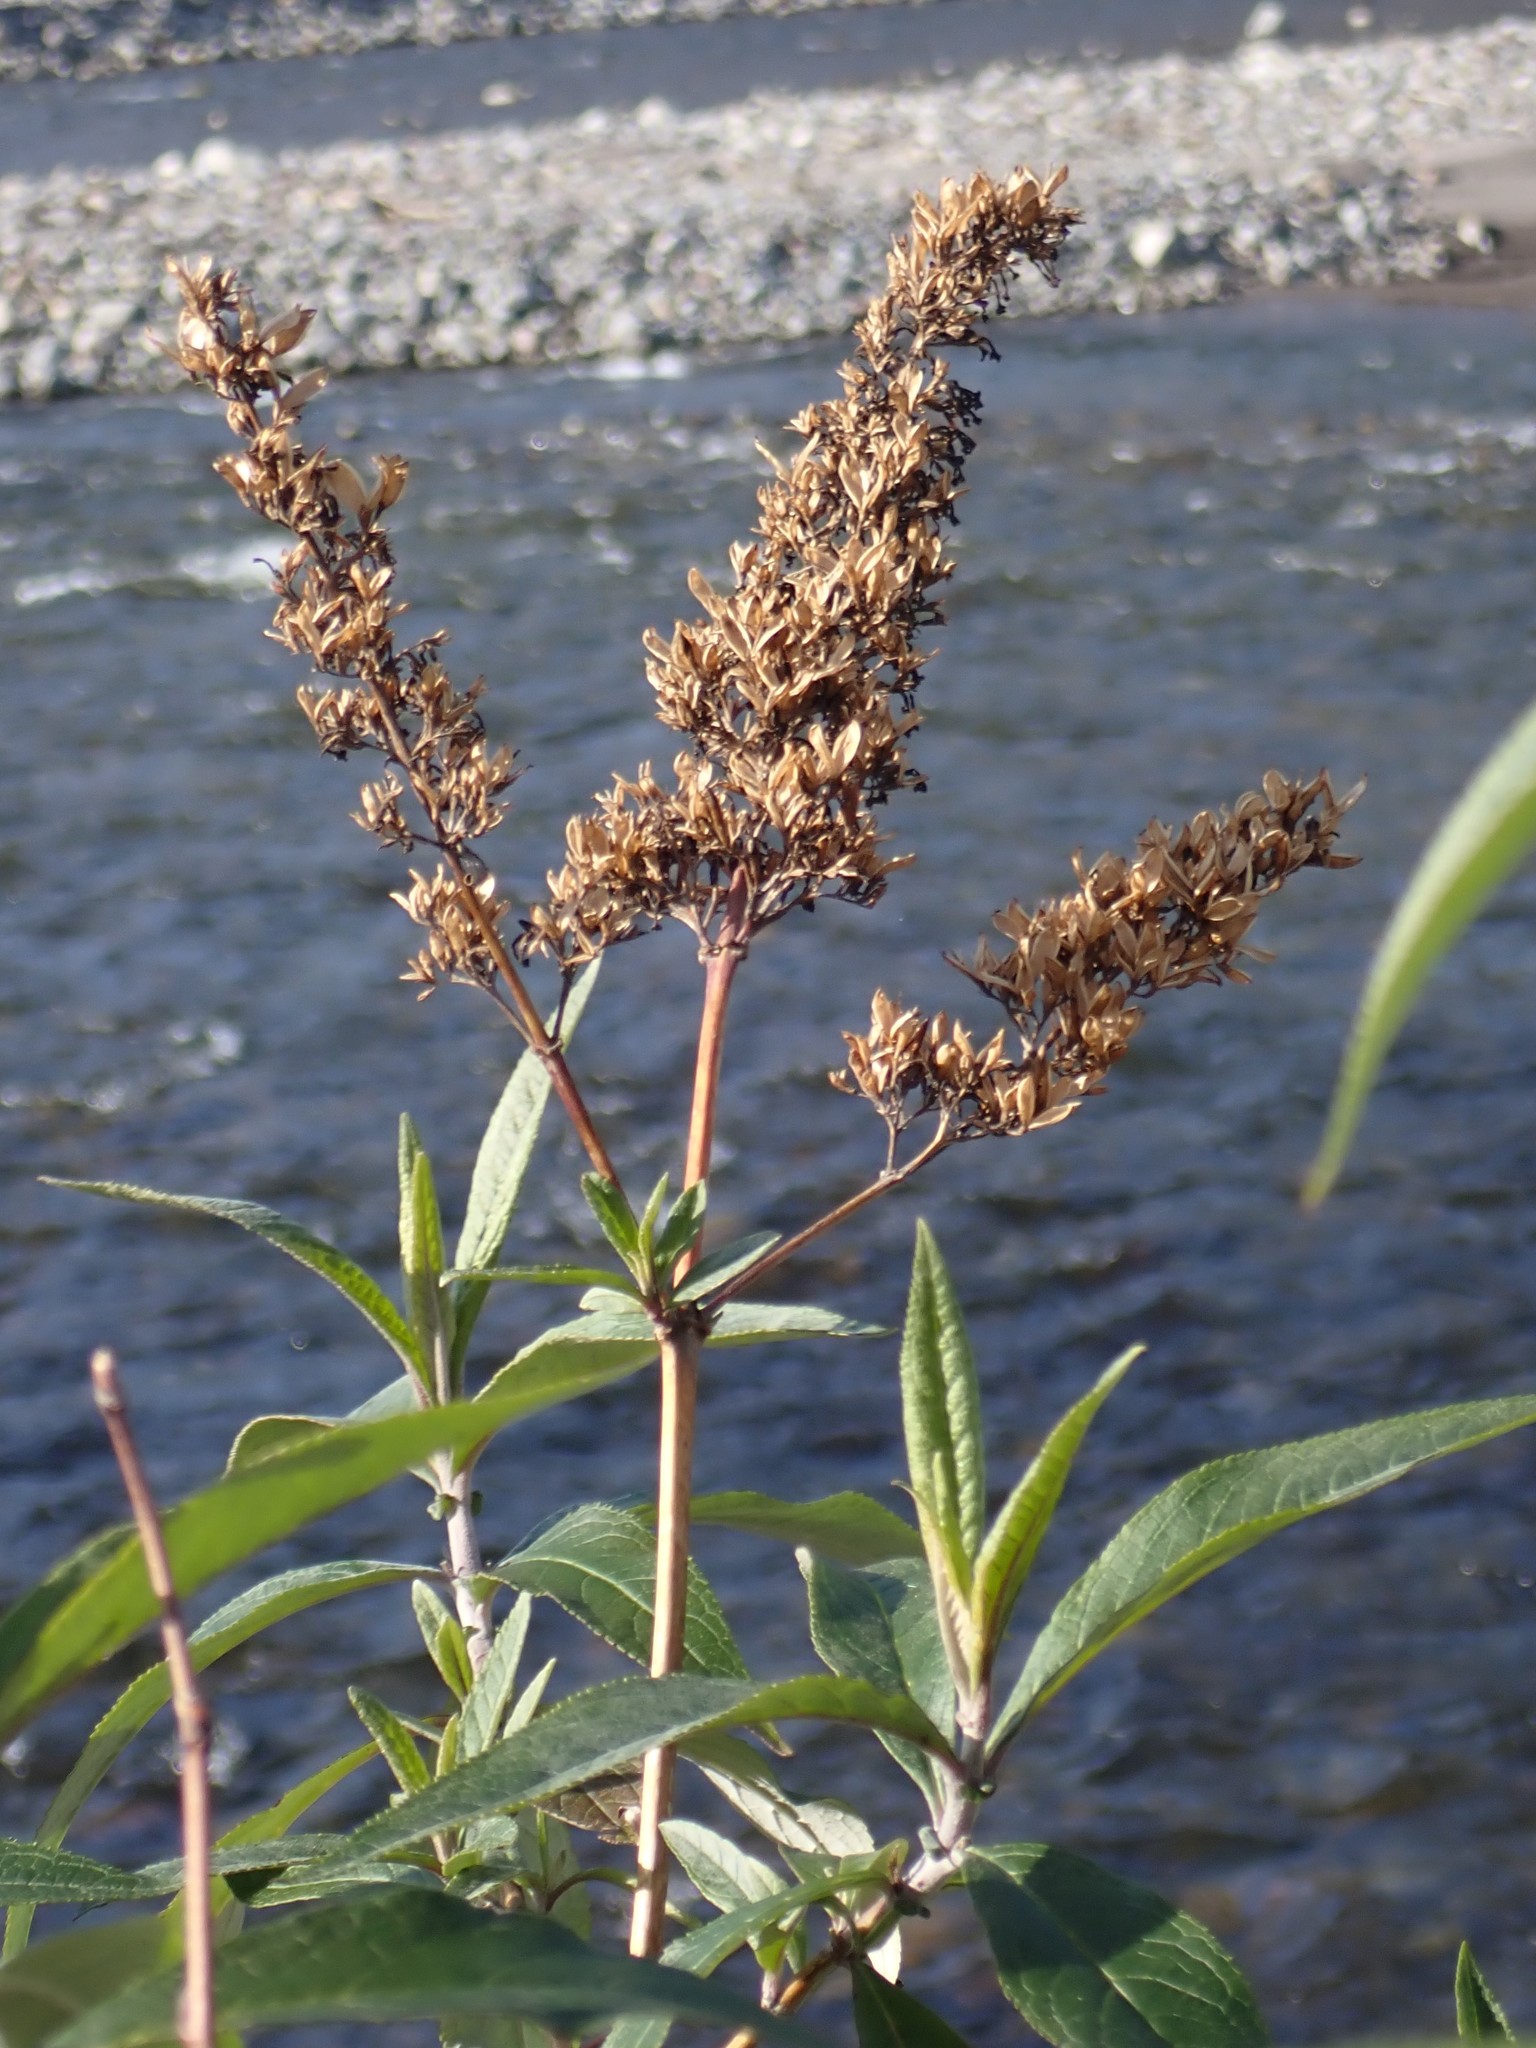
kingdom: Plantae
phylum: Tracheophyta
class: Magnoliopsida
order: Lamiales
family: Scrophulariaceae
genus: Buddleja
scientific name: Buddleja davidii
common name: Butterfly-bush
